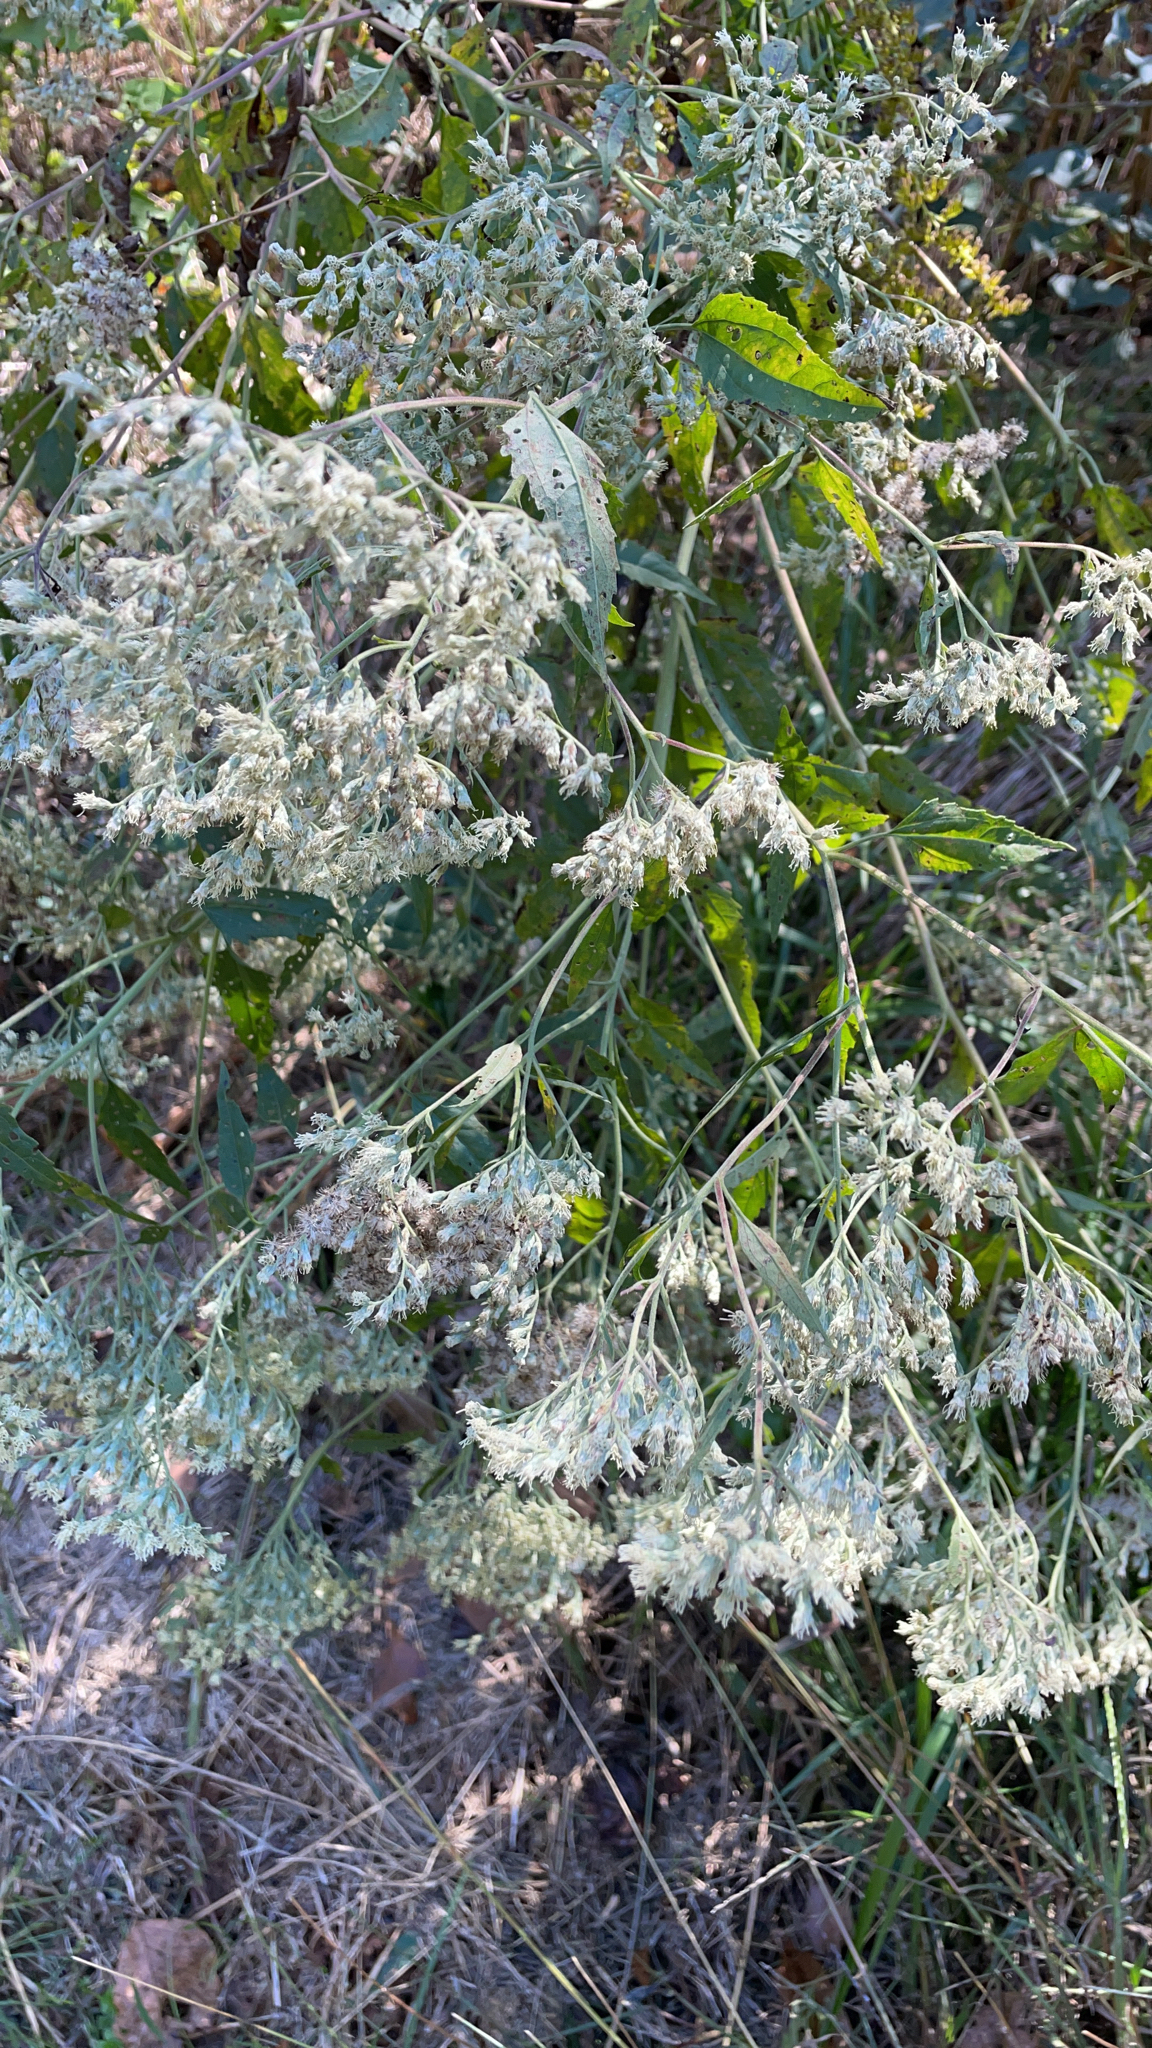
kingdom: Plantae
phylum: Tracheophyta
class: Magnoliopsida
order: Asterales
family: Asteraceae
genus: Eupatorium
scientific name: Eupatorium serotinum
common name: Late boneset
